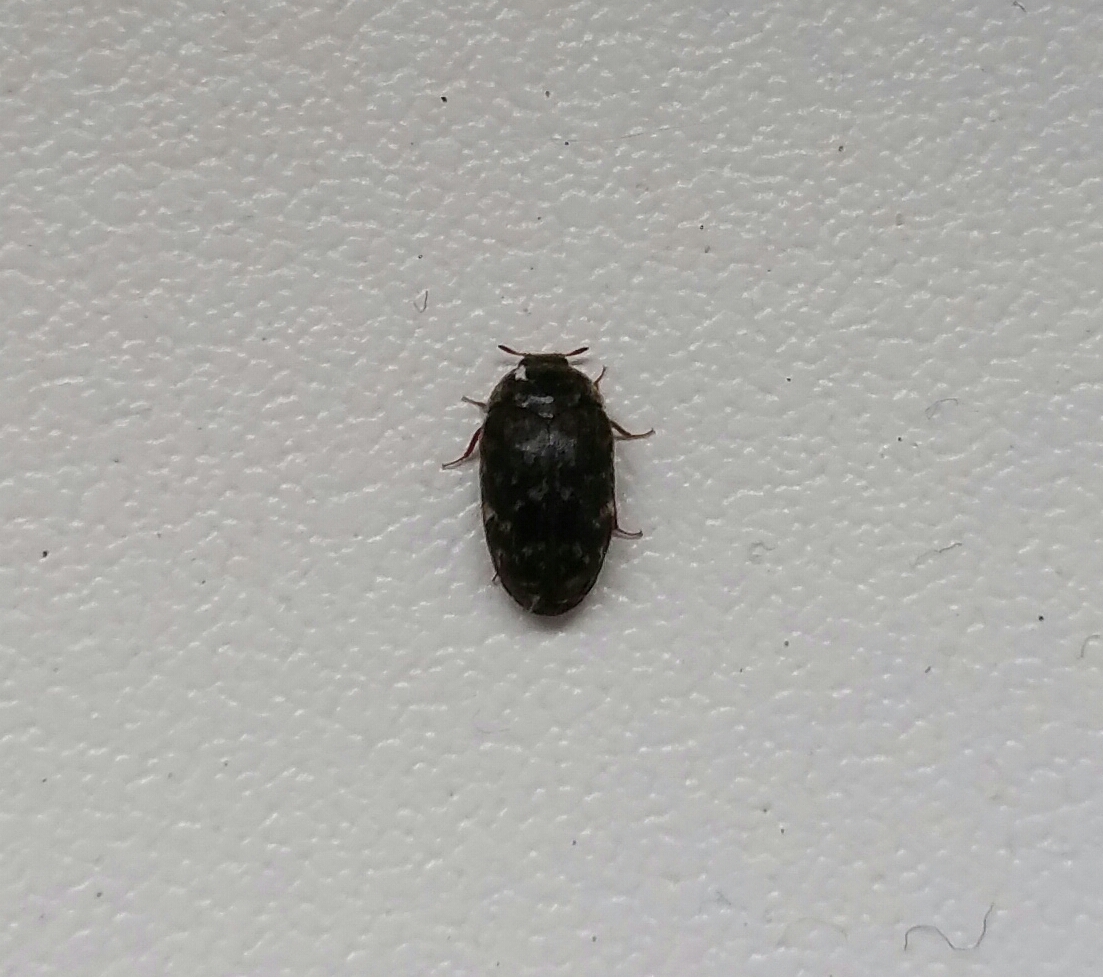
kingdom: Animalia
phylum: Arthropoda
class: Insecta
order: Coleoptera
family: Dermestidae
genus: Trogoderma
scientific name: Trogoderma glabrum
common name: Glabrous cabinet beetle
